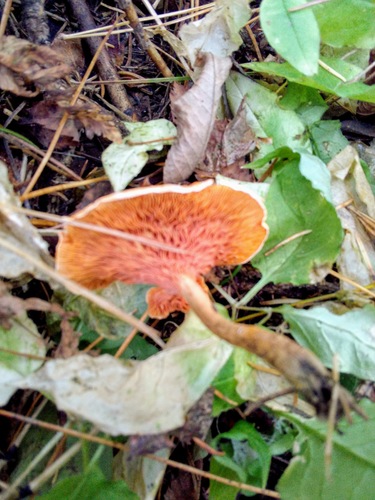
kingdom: Fungi
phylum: Basidiomycota
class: Agaricomycetes
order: Boletales
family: Hygrophoropsidaceae
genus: Hygrophoropsis
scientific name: Hygrophoropsis aurantiaca
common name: False chanterelle
